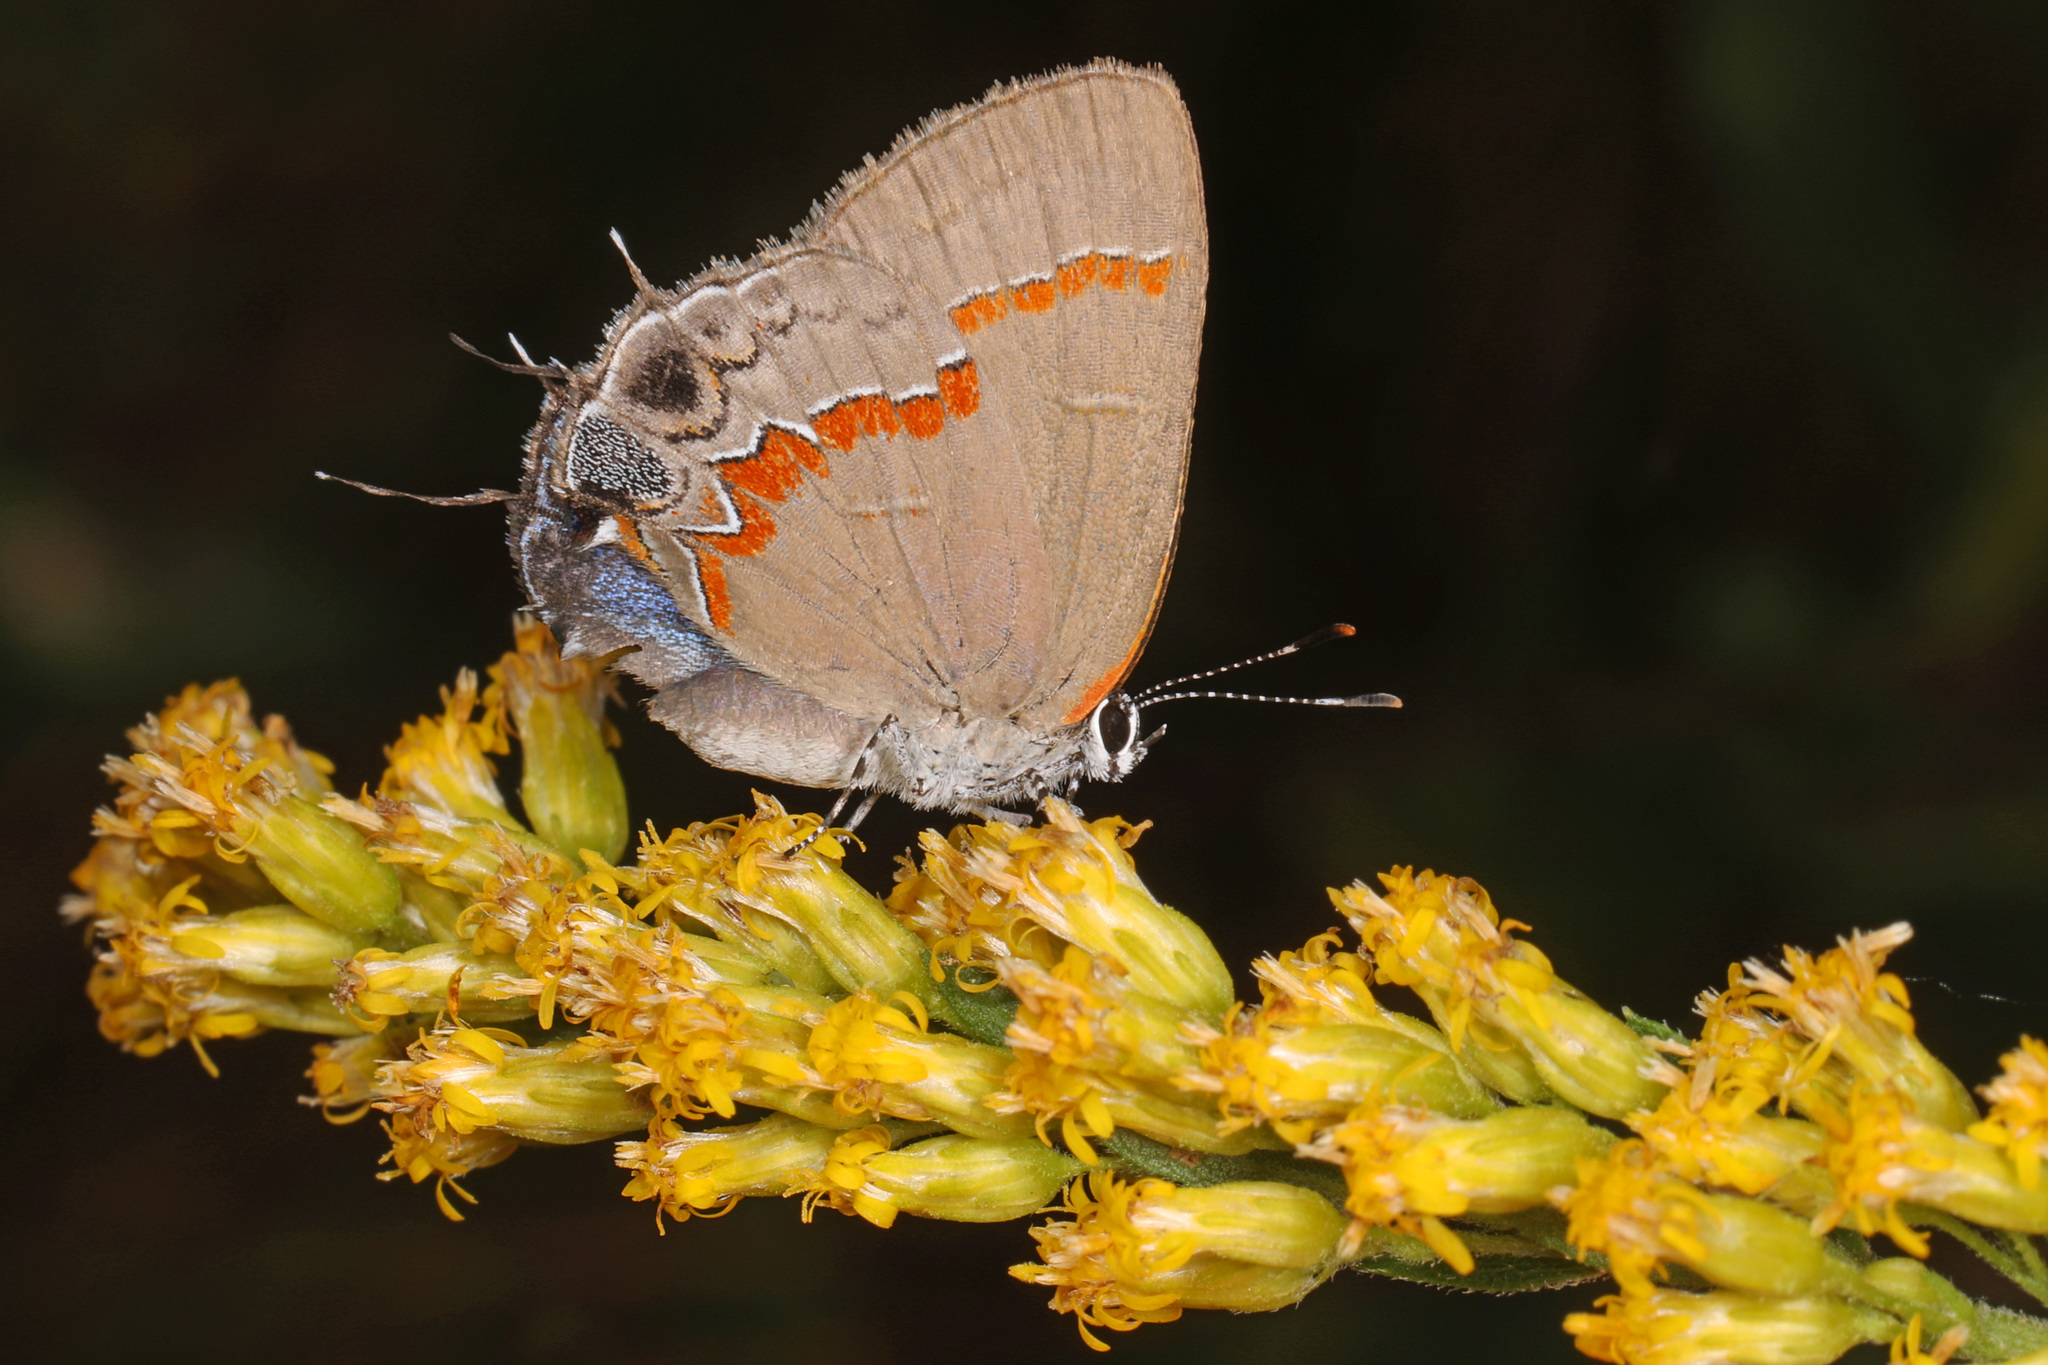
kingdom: Animalia
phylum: Arthropoda
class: Insecta
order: Lepidoptera
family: Lycaenidae
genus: Calycopis
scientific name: Calycopis cecrops
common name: Red-banded hairstreak
